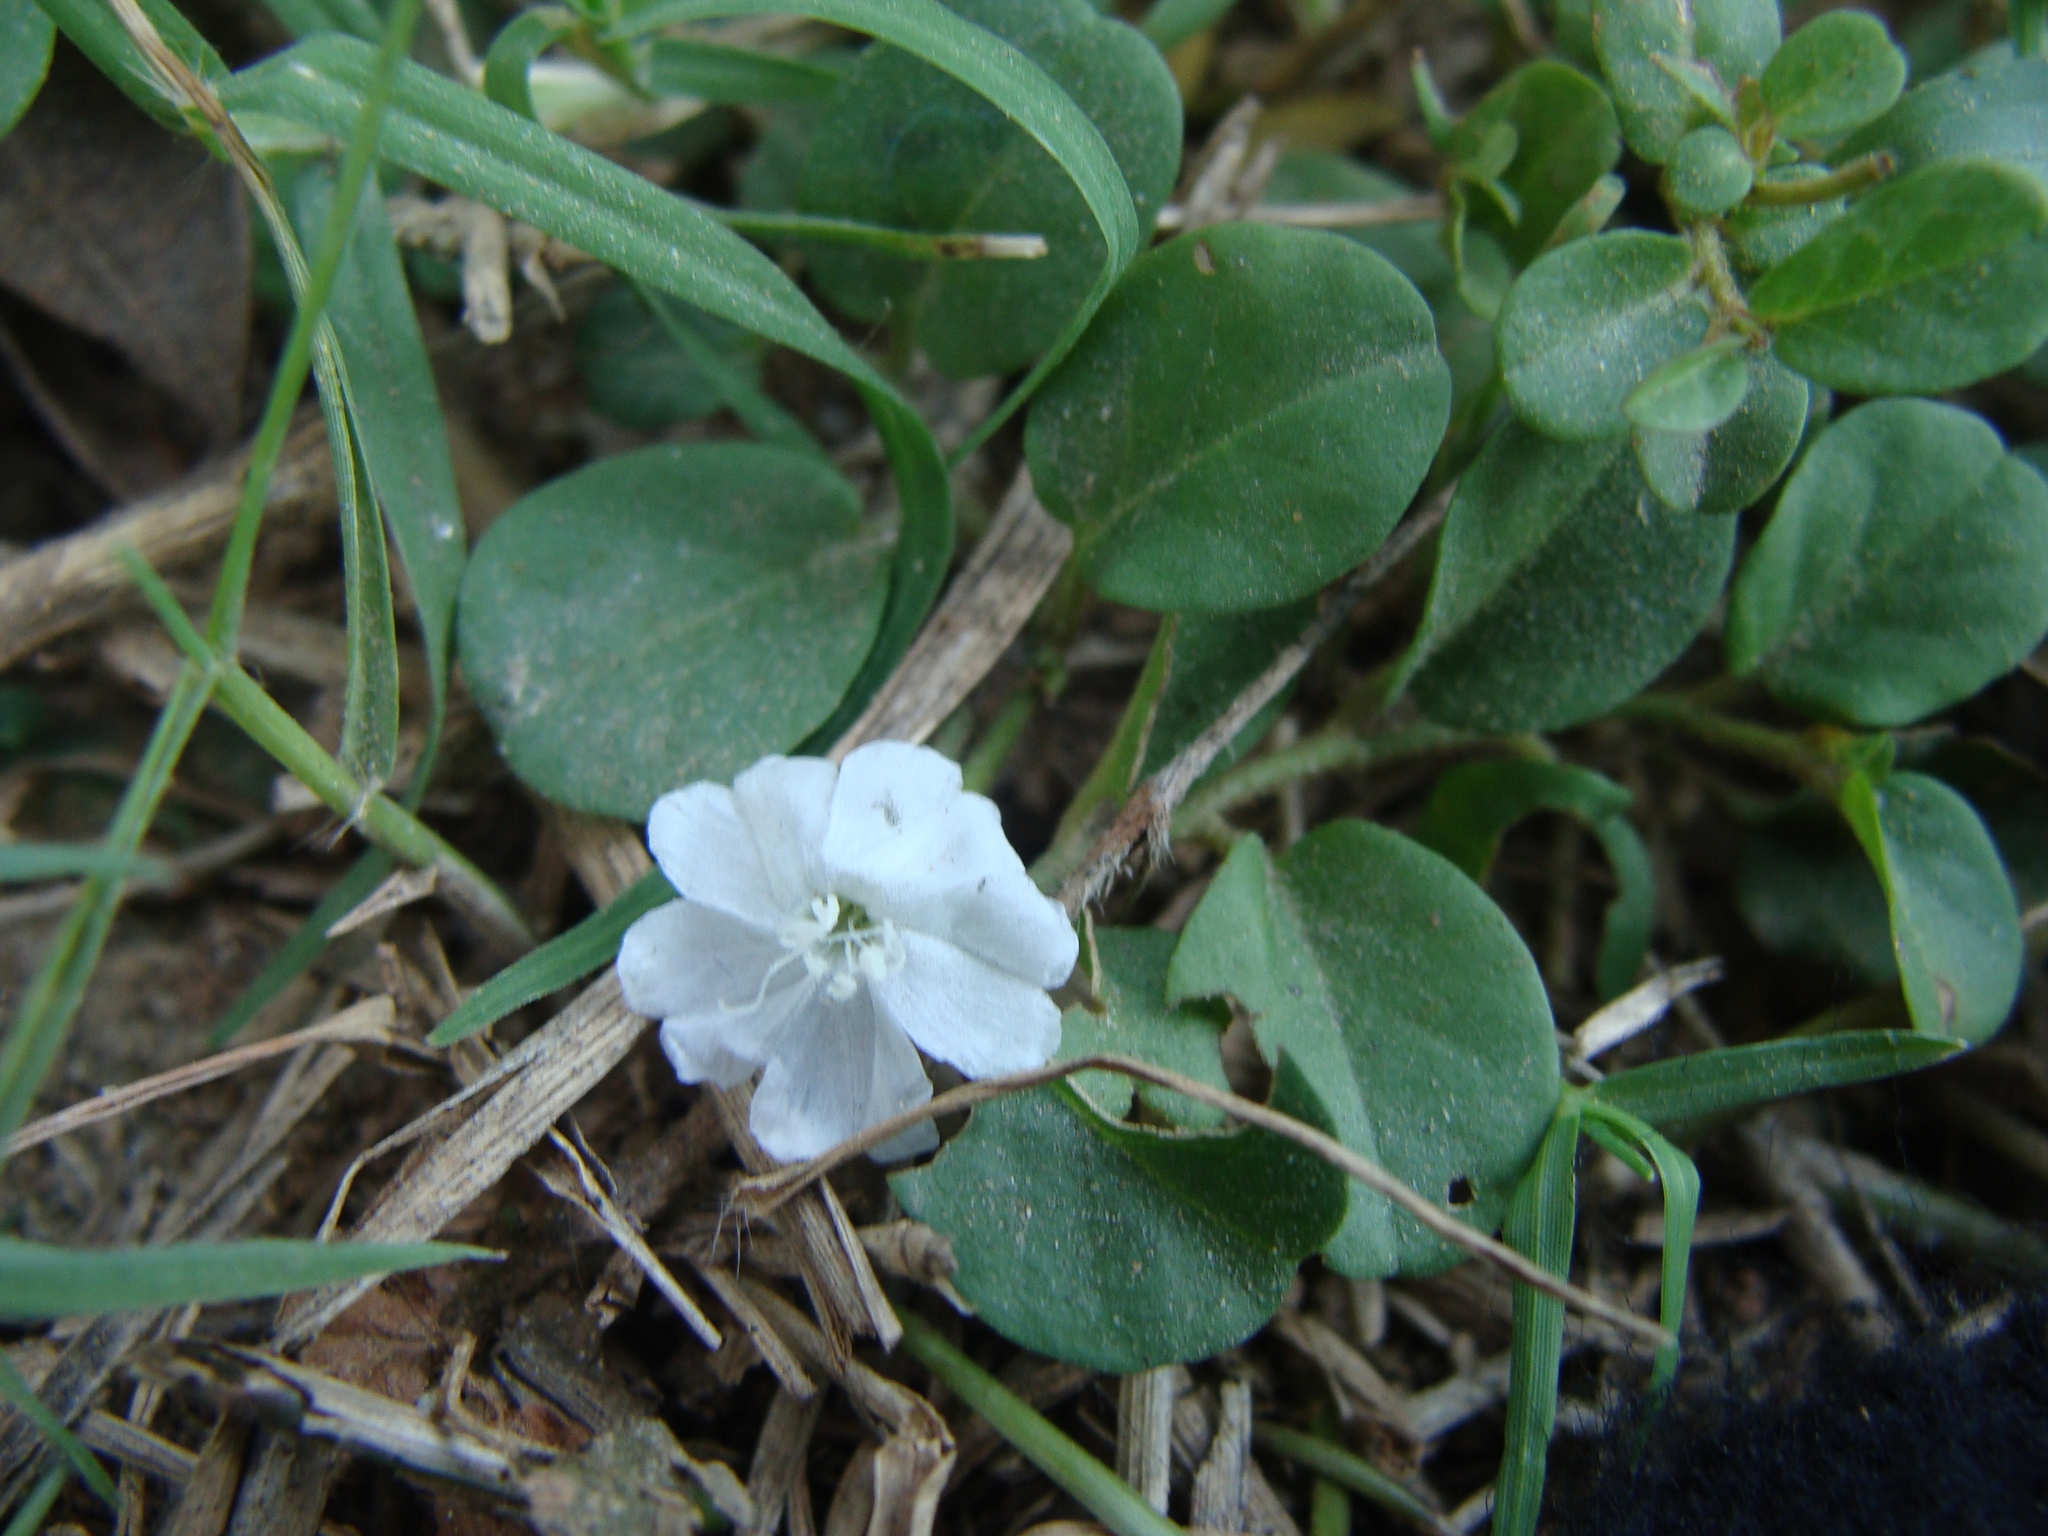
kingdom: Plantae
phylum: Tracheophyta
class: Magnoliopsida
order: Solanales
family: Convolvulaceae
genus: Evolvulus
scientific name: Evolvulus nummularius
